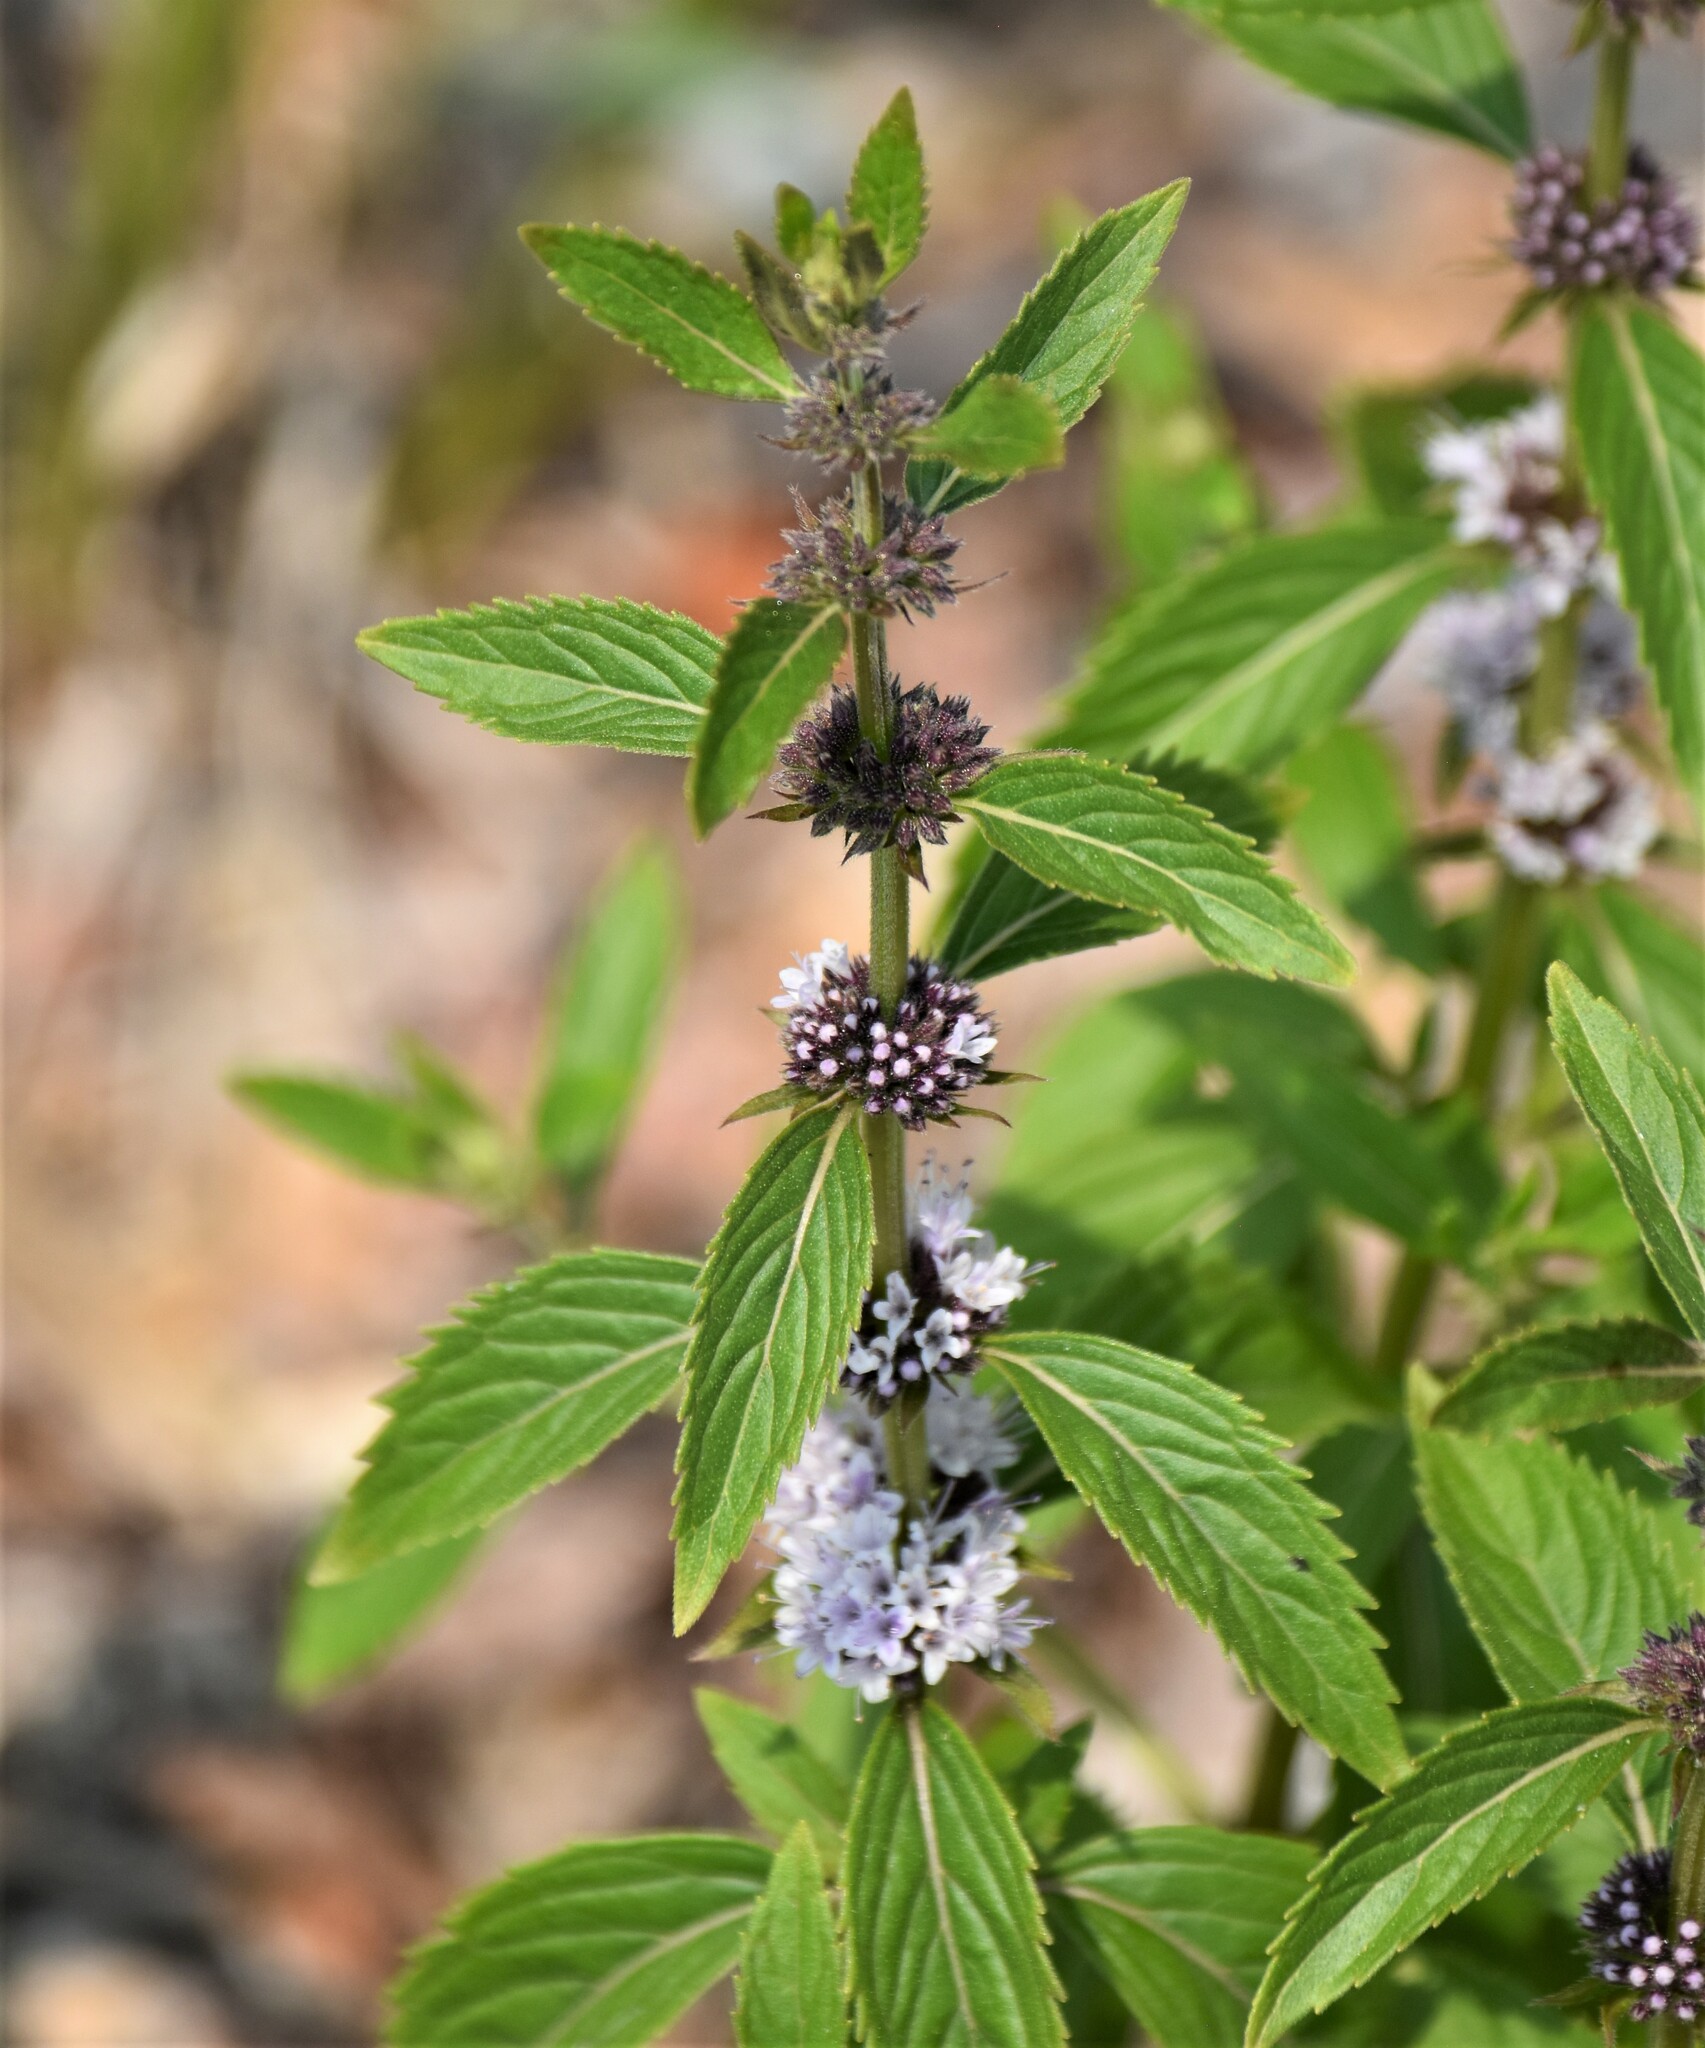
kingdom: Plantae
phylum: Tracheophyta
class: Magnoliopsida
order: Lamiales
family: Lamiaceae
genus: Mentha
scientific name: Mentha canadensis
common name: American corn mint
